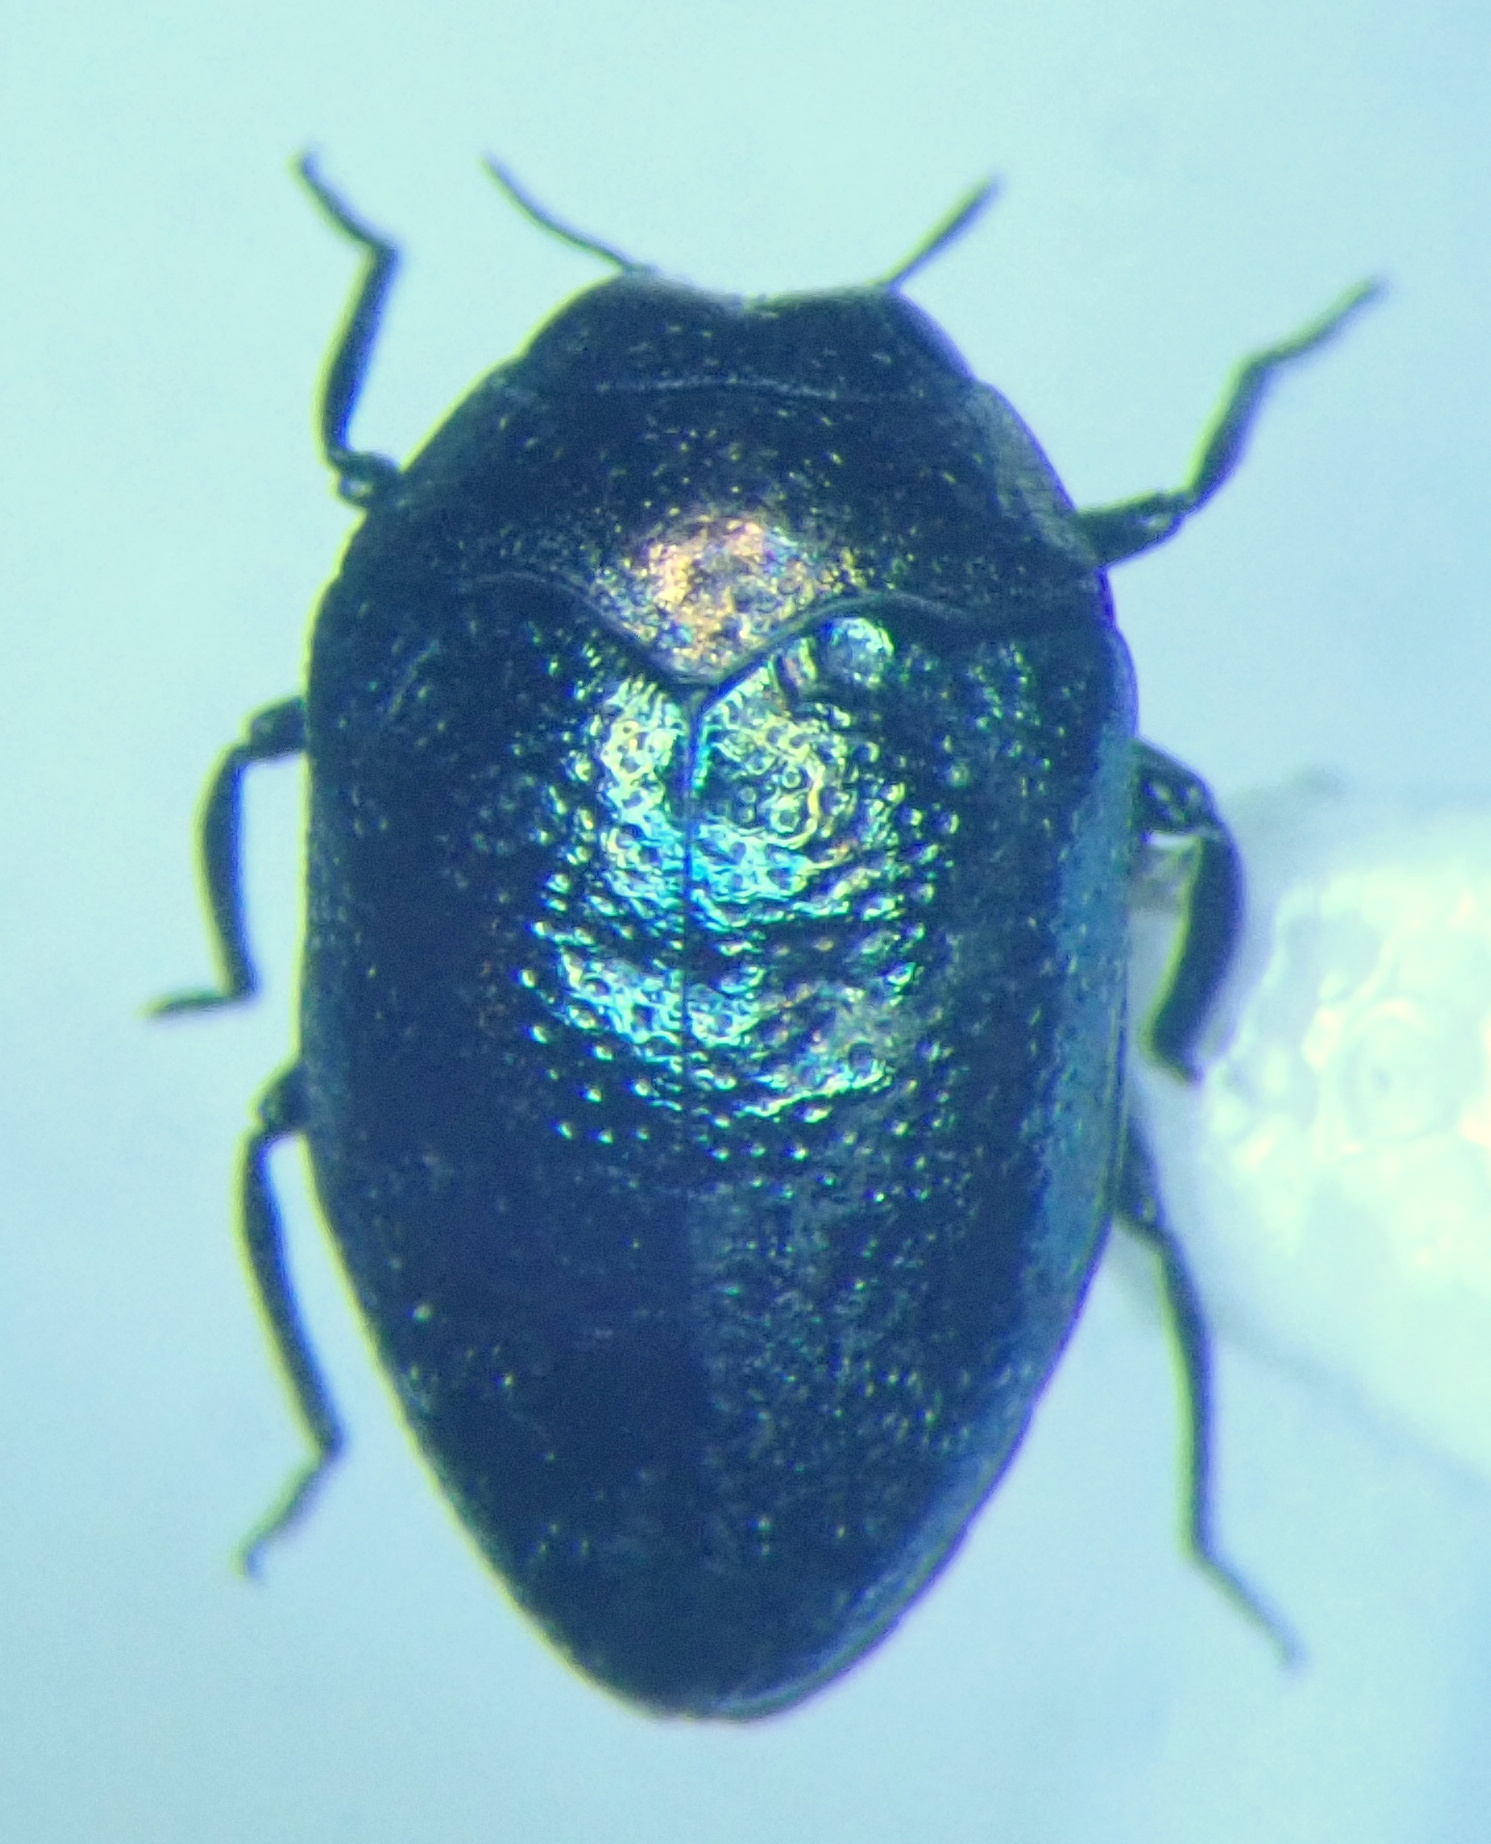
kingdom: Animalia
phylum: Arthropoda
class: Insecta
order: Coleoptera
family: Buprestidae
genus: Trachys
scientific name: Trachys troglodytiformis
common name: Metallic wood-boring beetle
